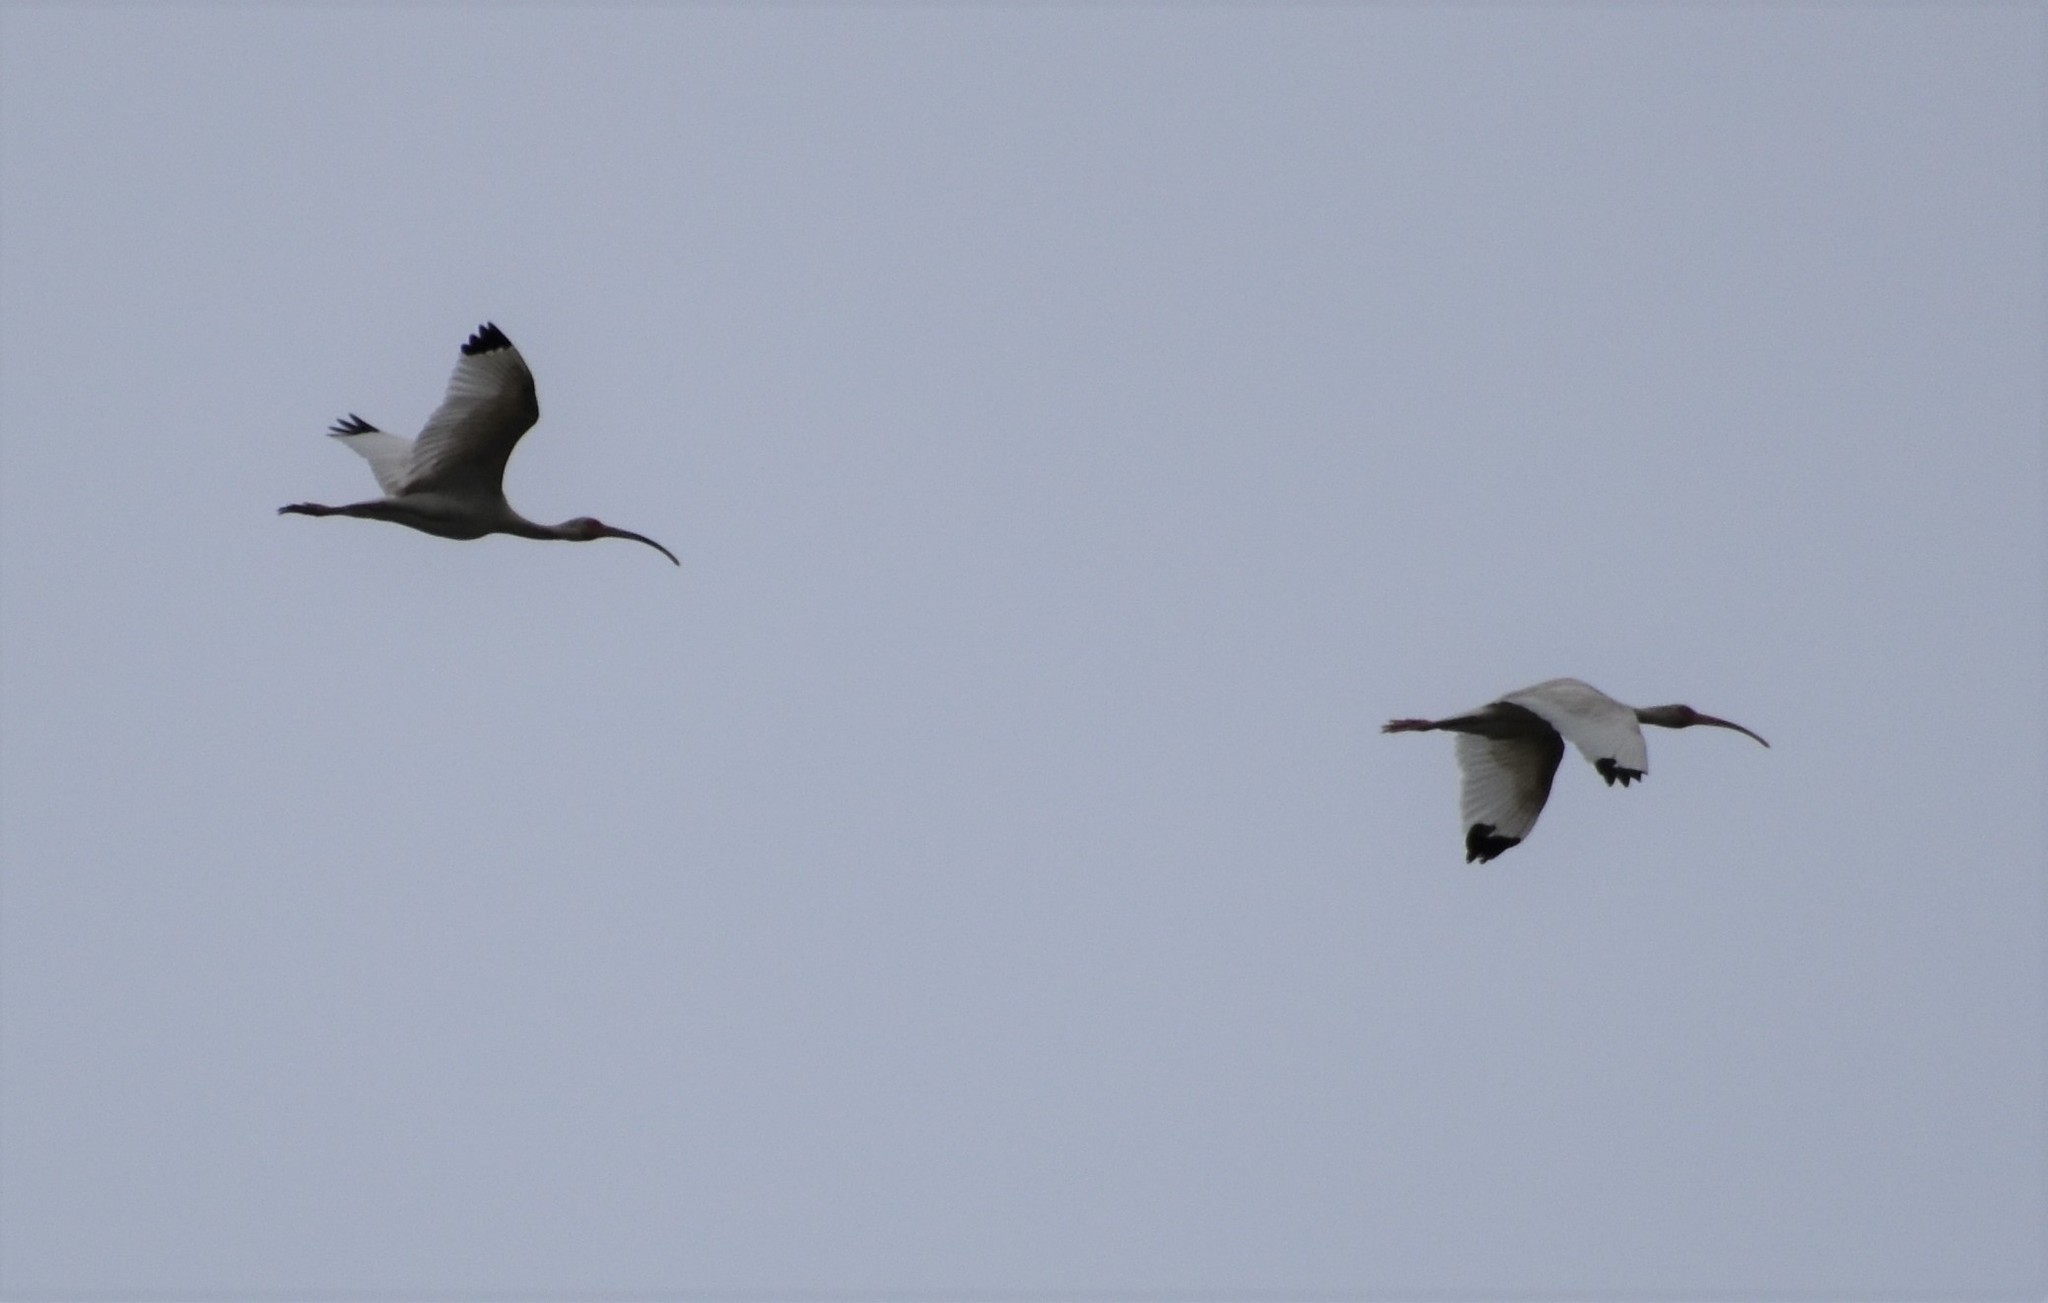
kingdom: Animalia
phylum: Chordata
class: Aves
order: Pelecaniformes
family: Threskiornithidae
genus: Eudocimus
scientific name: Eudocimus albus
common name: White ibis
